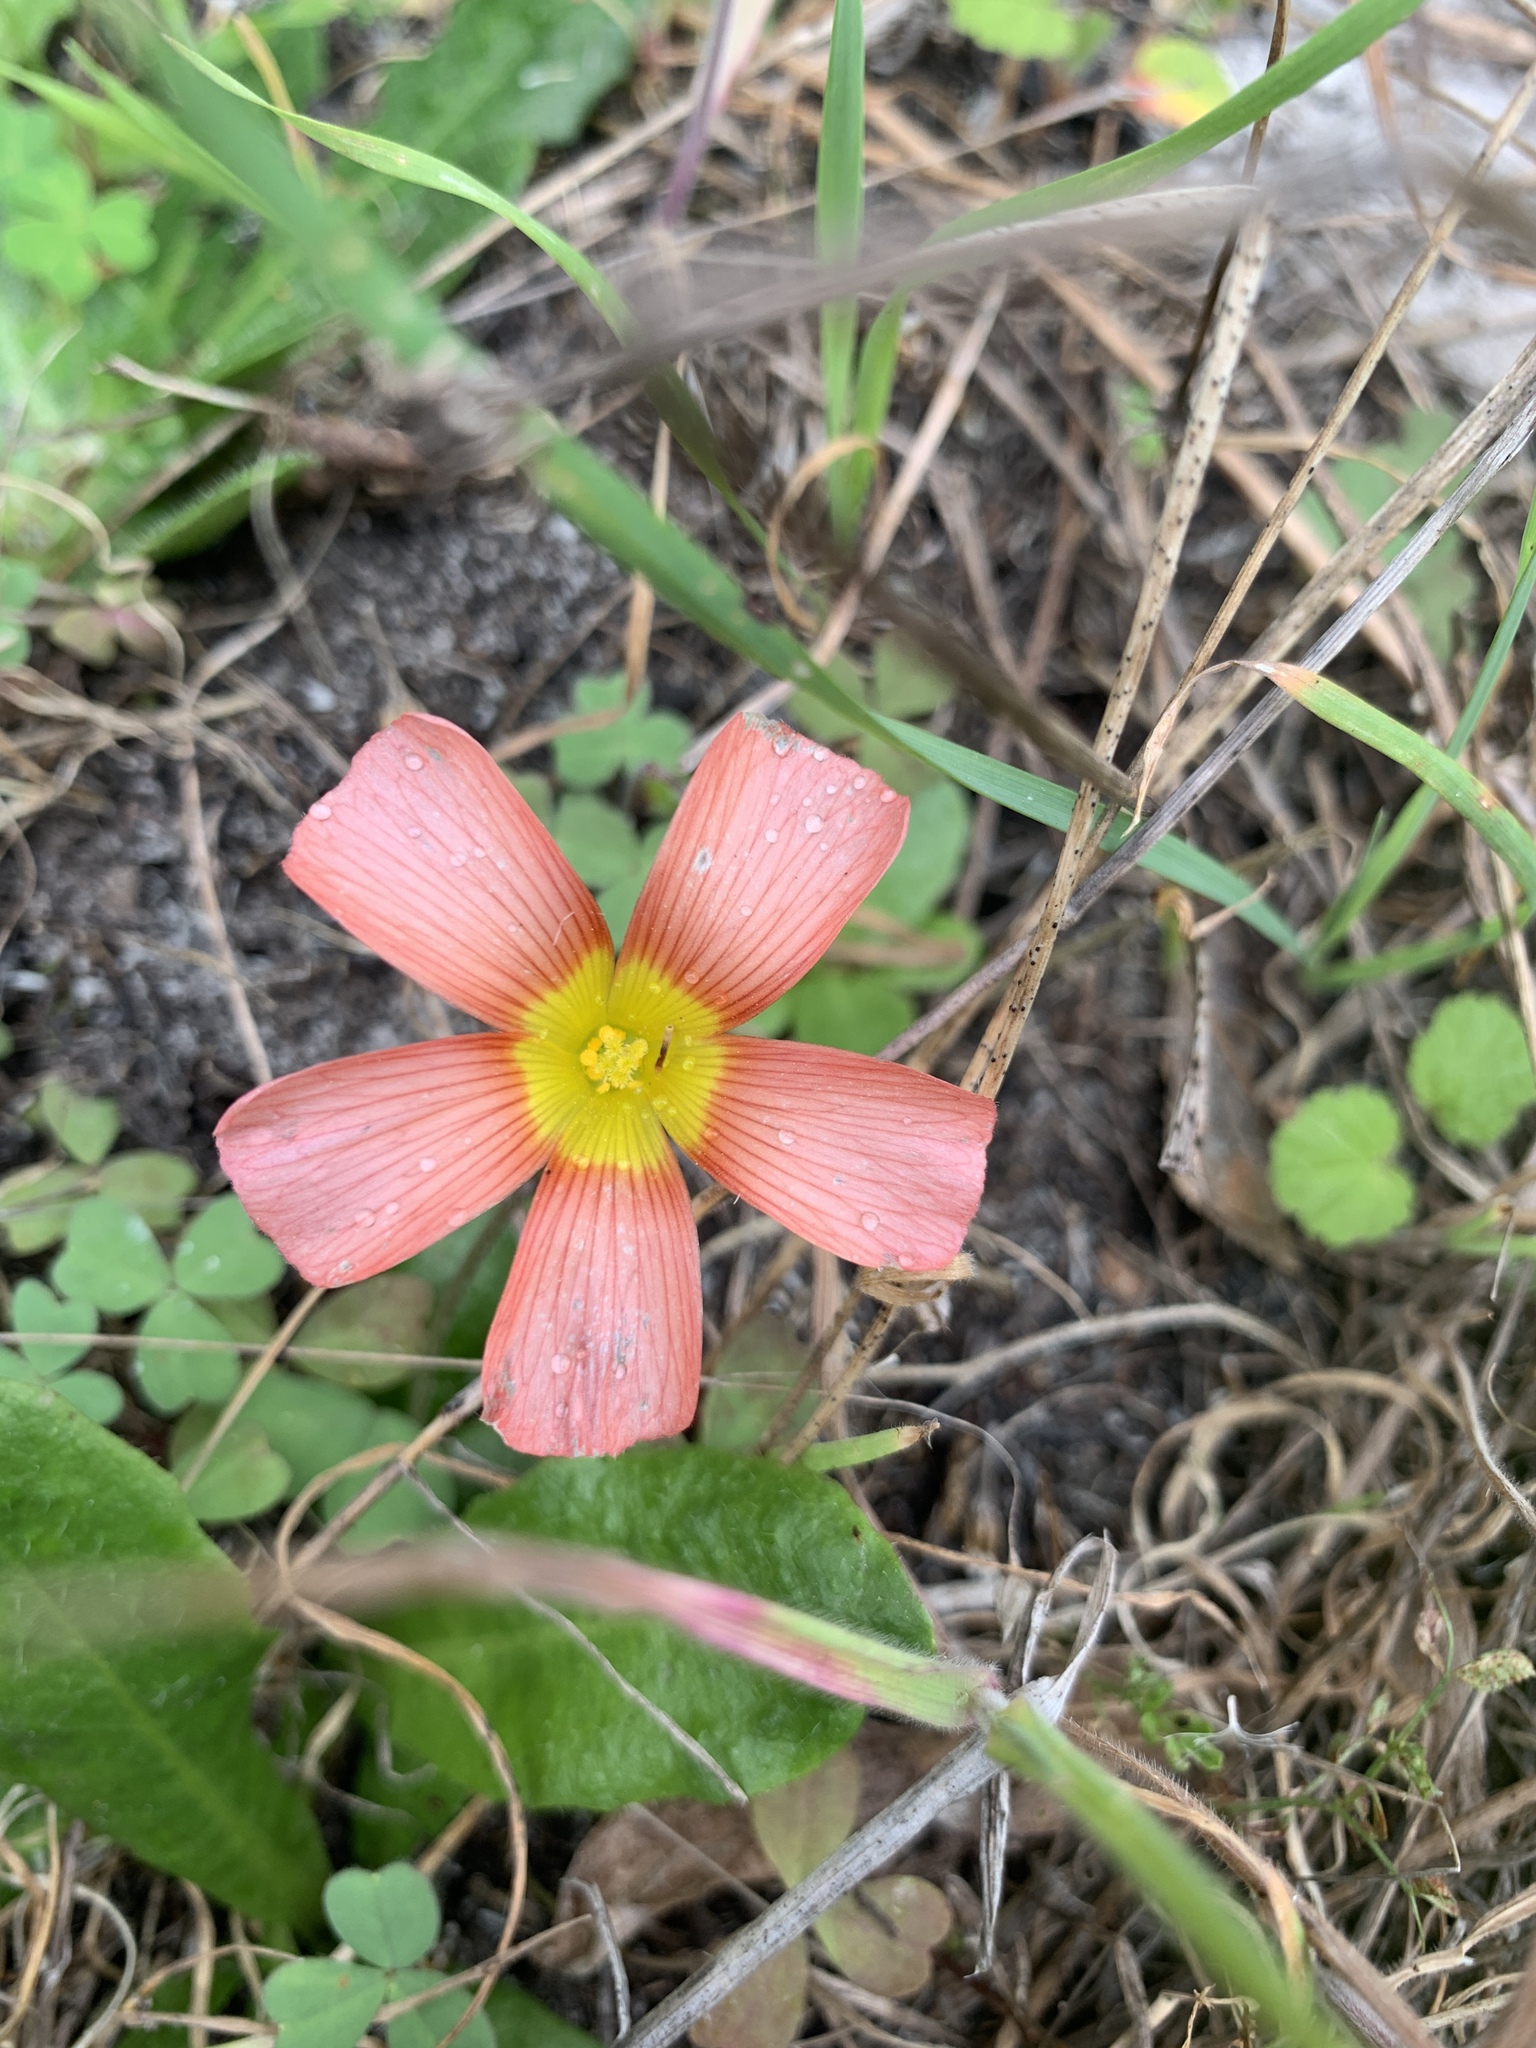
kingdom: Plantae
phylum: Tracheophyta
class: Magnoliopsida
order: Oxalidales
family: Oxalidaceae
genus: Oxalis
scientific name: Oxalis obtusa
